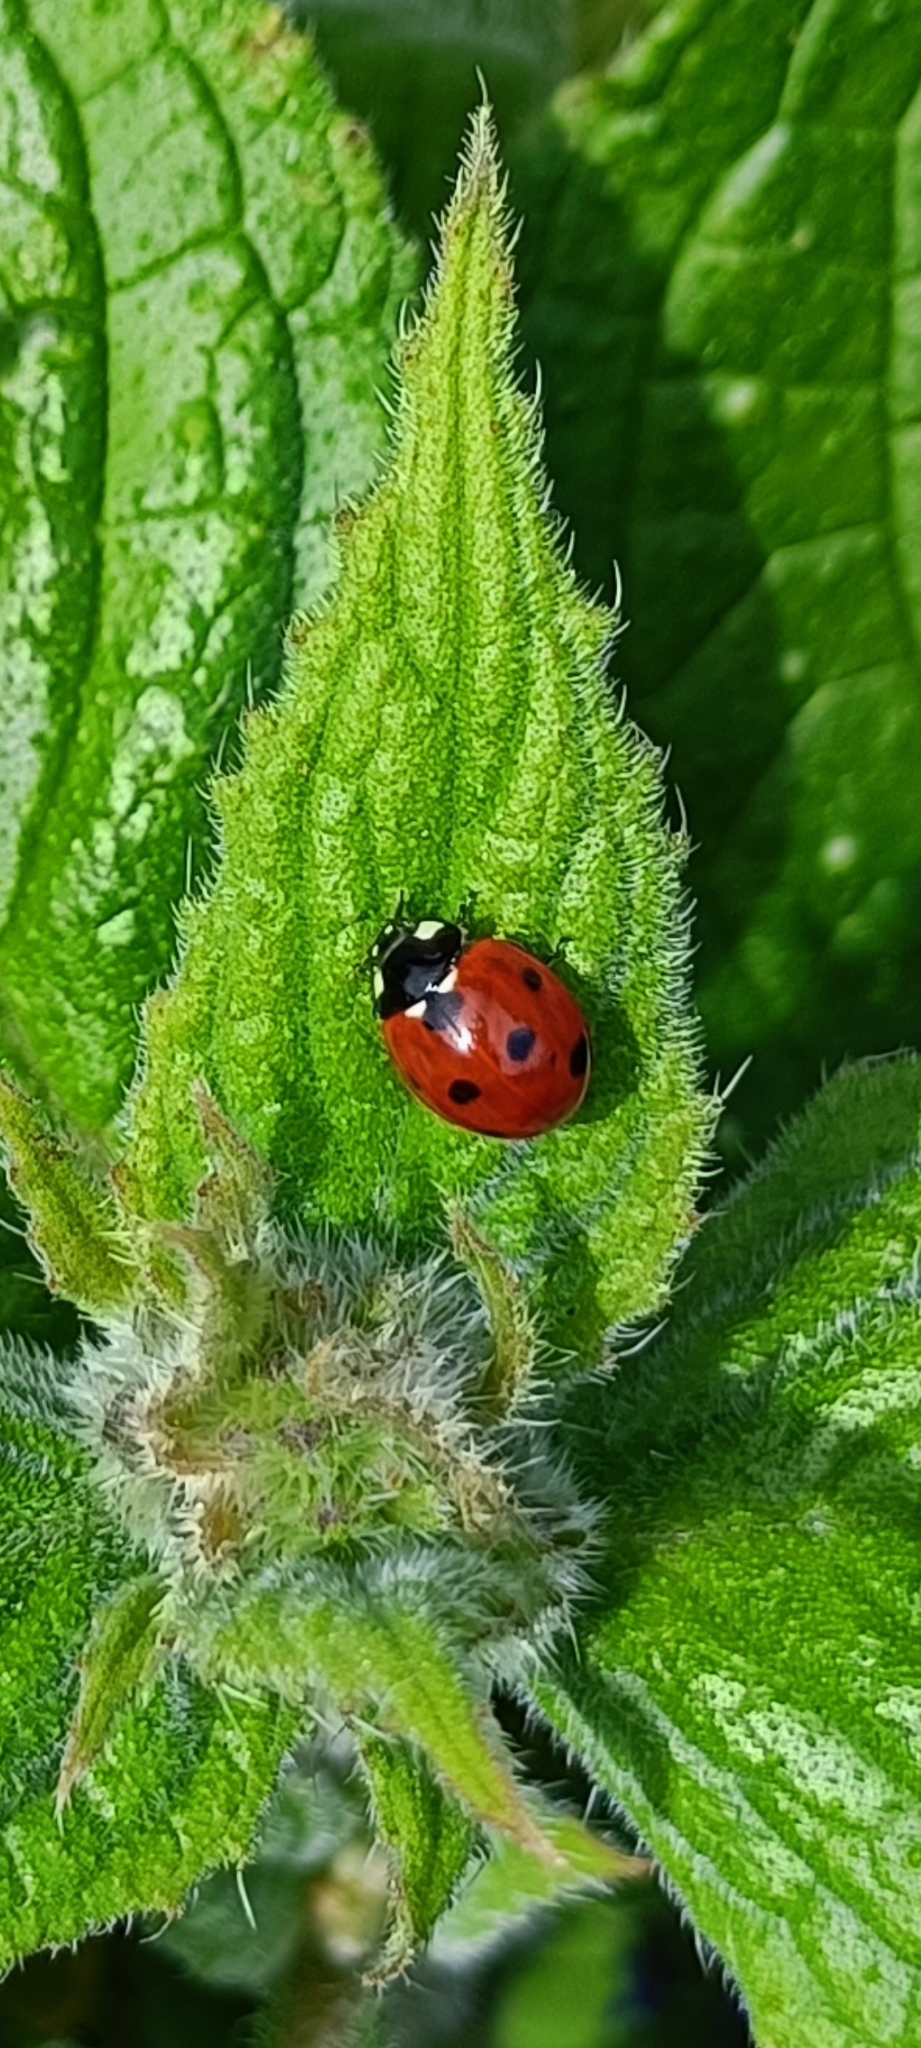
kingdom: Animalia
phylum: Arthropoda
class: Insecta
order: Coleoptera
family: Coccinellidae
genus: Coccinella
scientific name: Coccinella septempunctata
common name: Sevenspotted lady beetle
